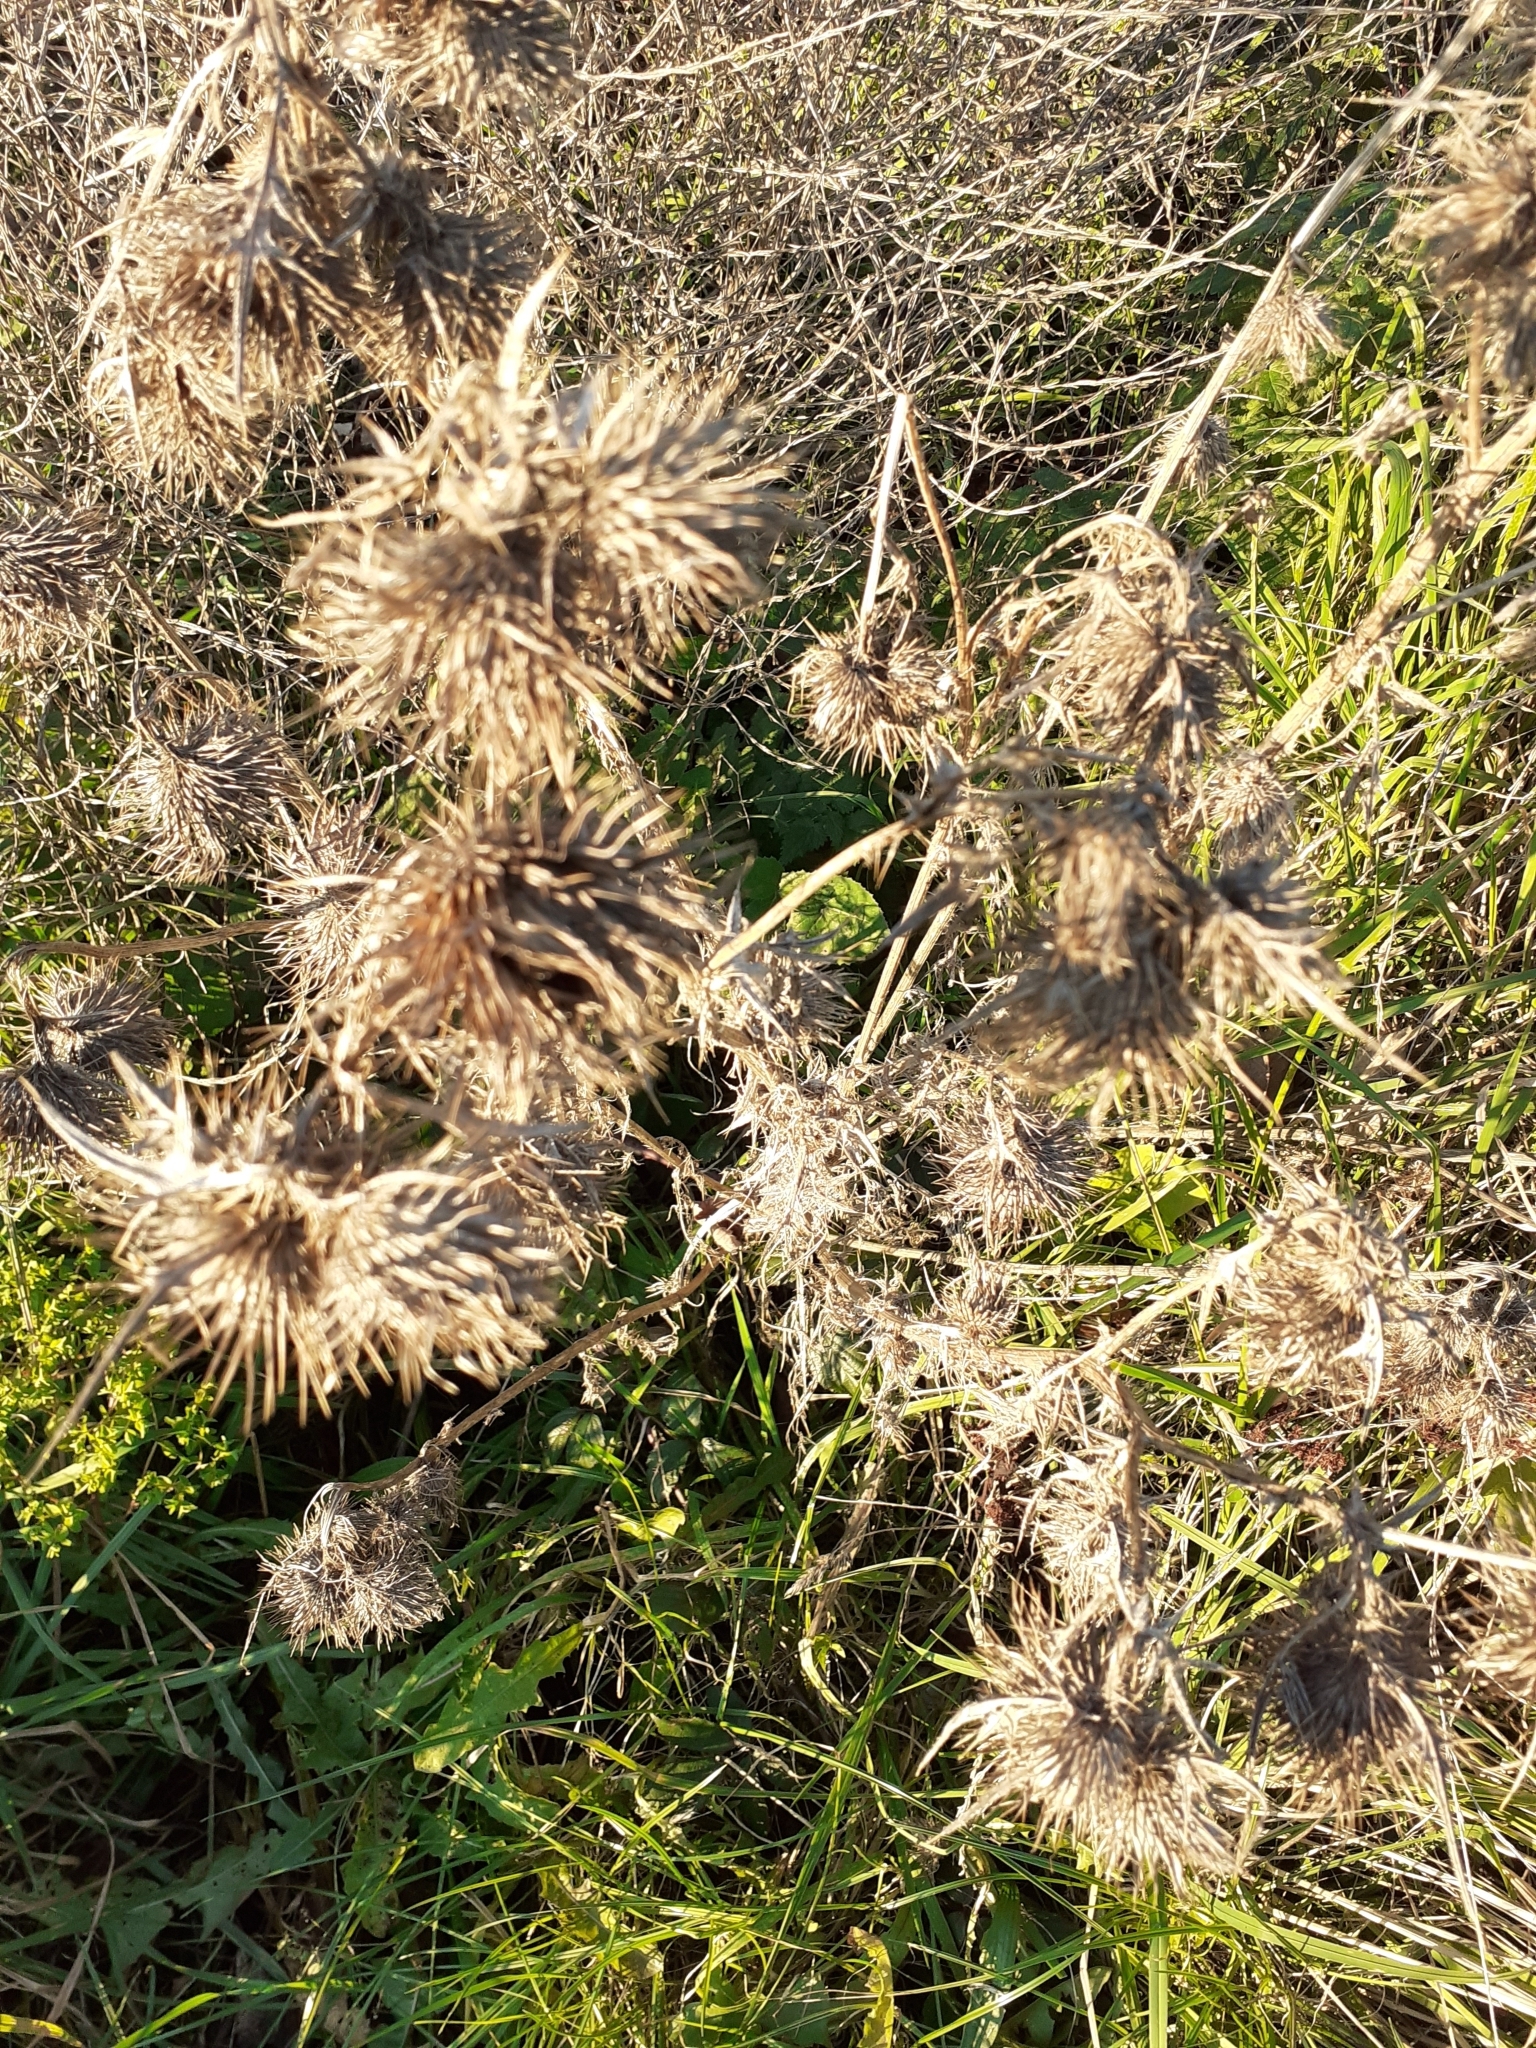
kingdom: Plantae
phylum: Tracheophyta
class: Magnoliopsida
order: Asterales
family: Asteraceae
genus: Cirsium
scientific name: Cirsium vulgare
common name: Bull thistle
